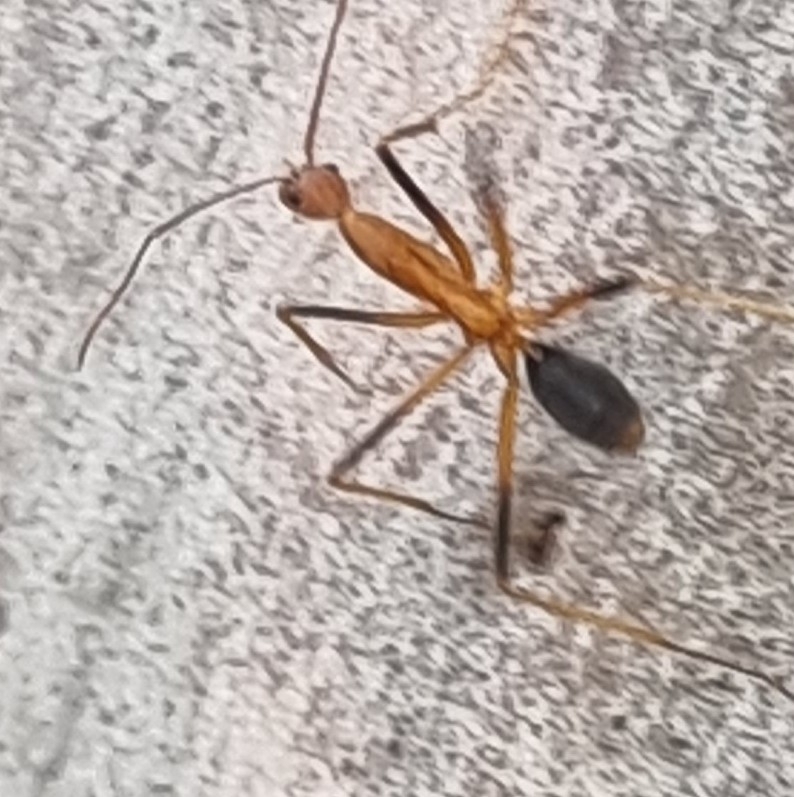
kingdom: Animalia
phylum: Arthropoda
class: Insecta
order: Hymenoptera
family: Formicidae
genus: Leptomyrmex
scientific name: Leptomyrmex rufipes
